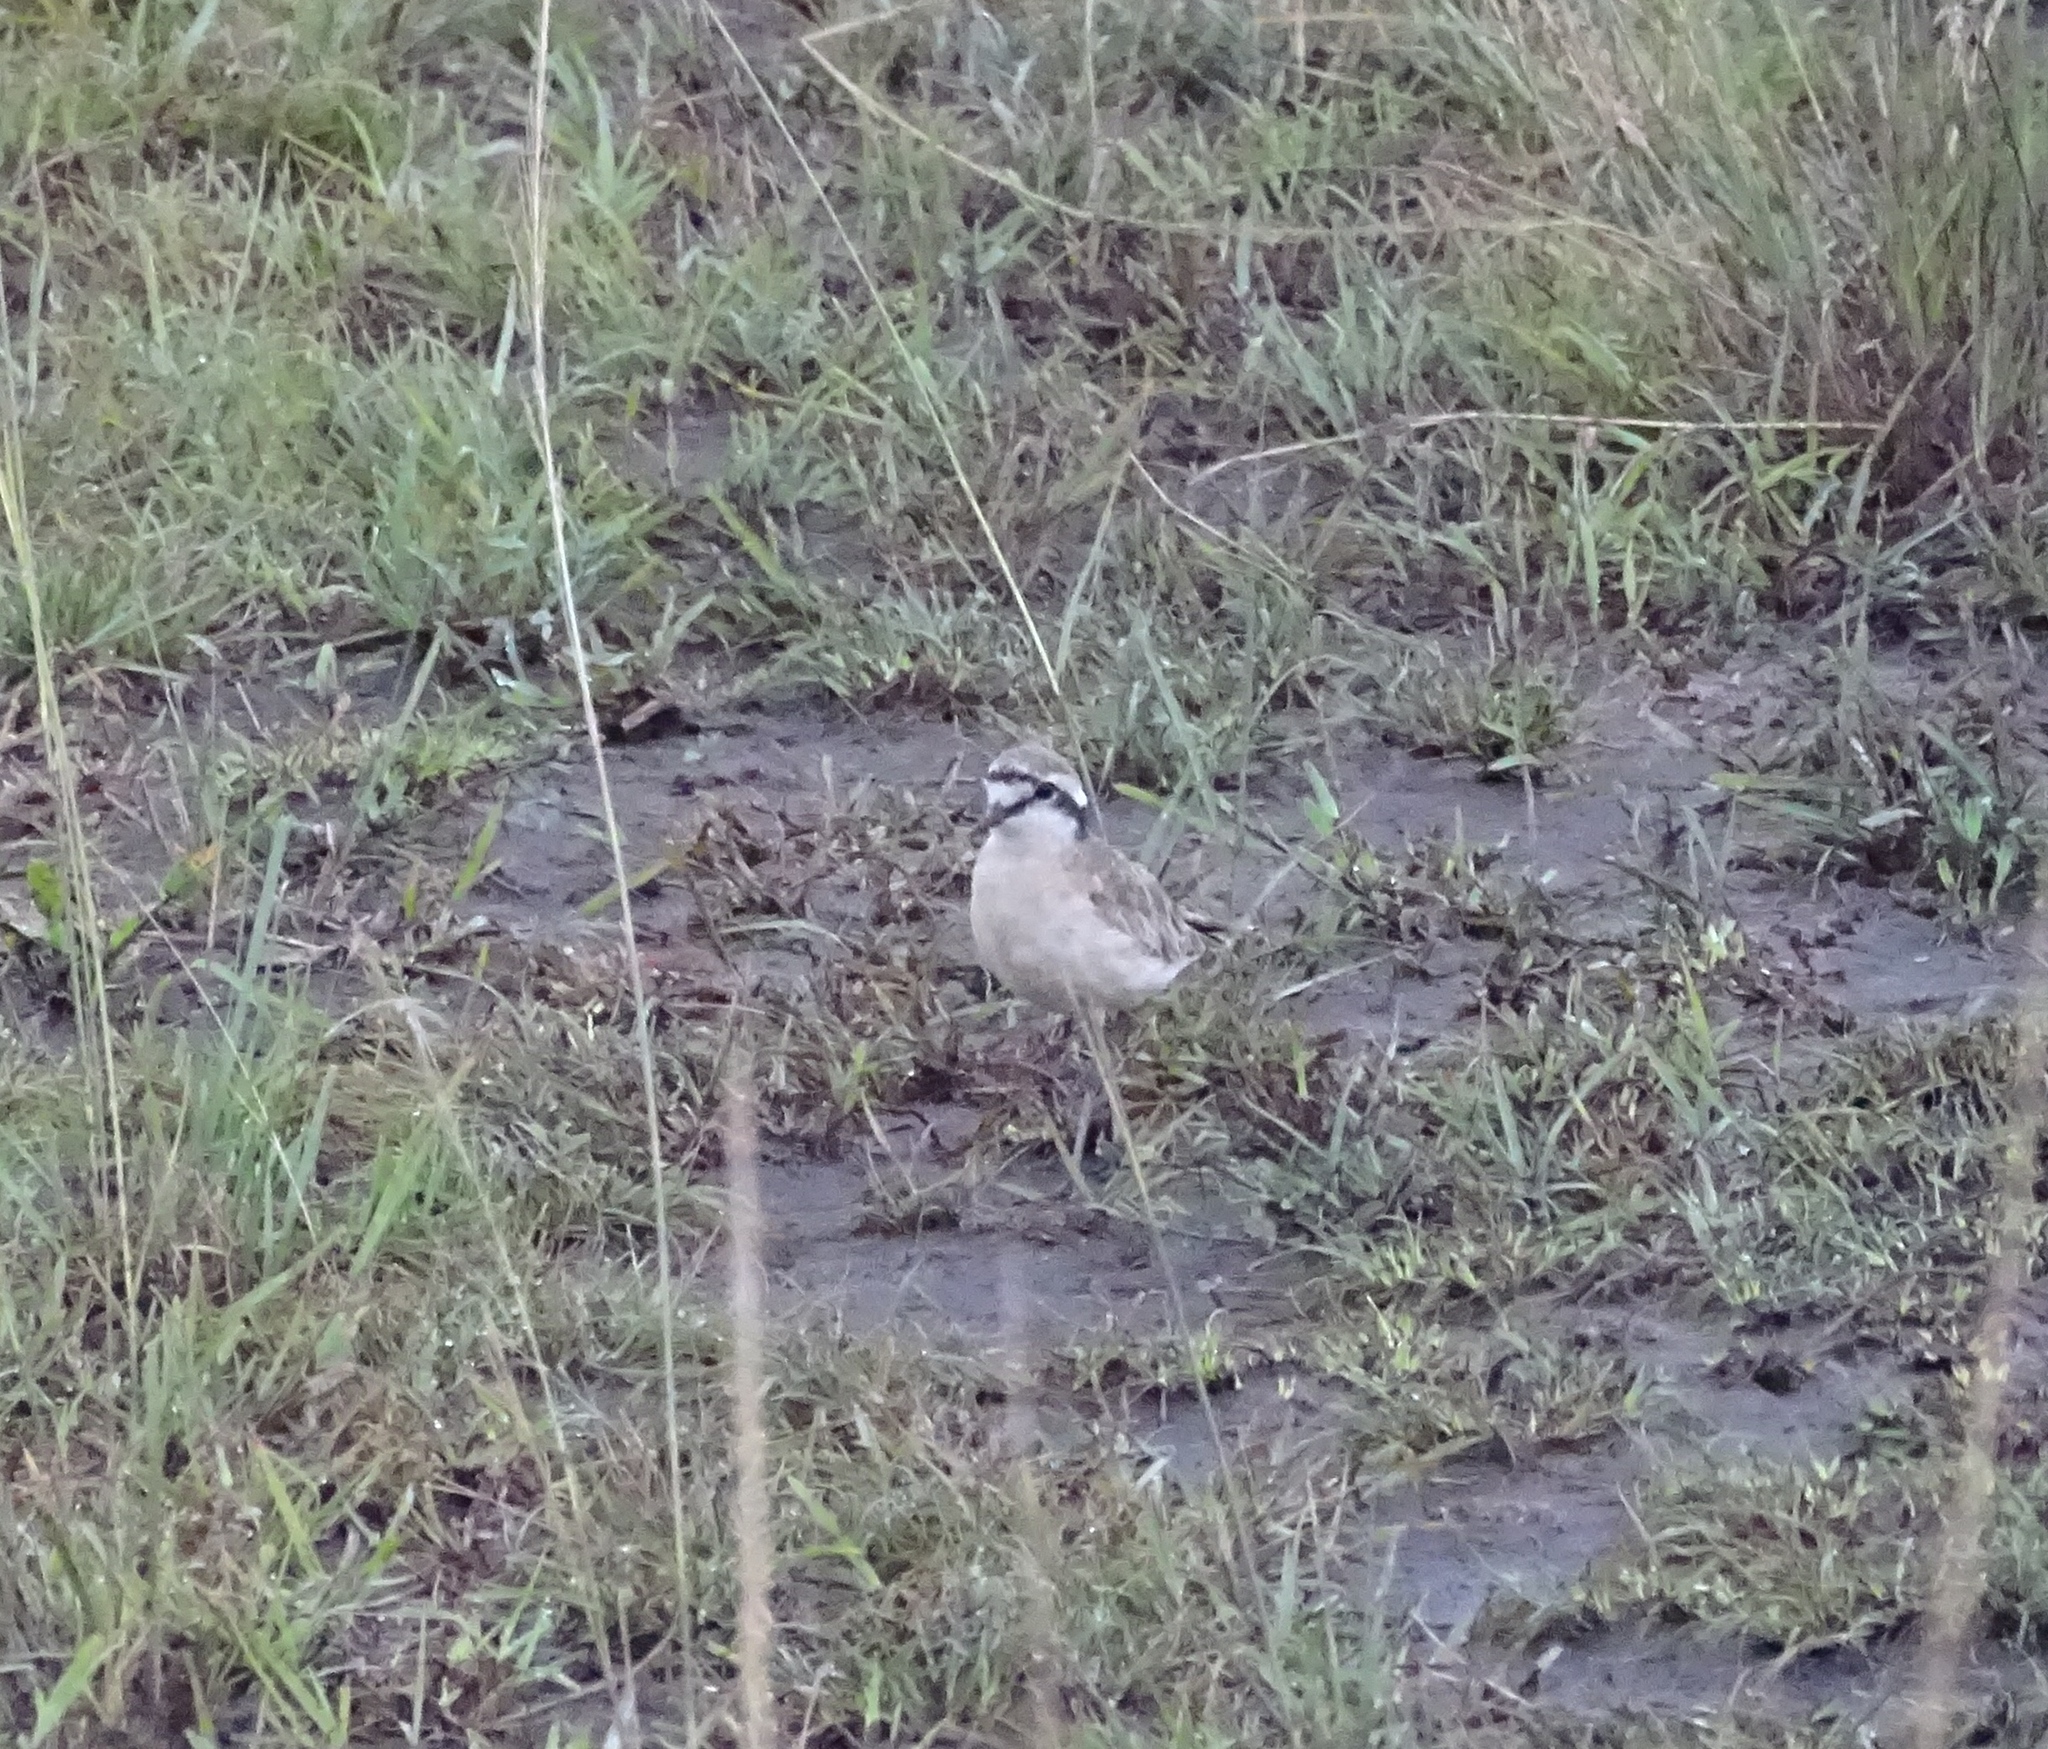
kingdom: Animalia
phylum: Chordata
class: Aves
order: Charadriiformes
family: Charadriidae
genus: Anarhynchus
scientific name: Anarhynchus
